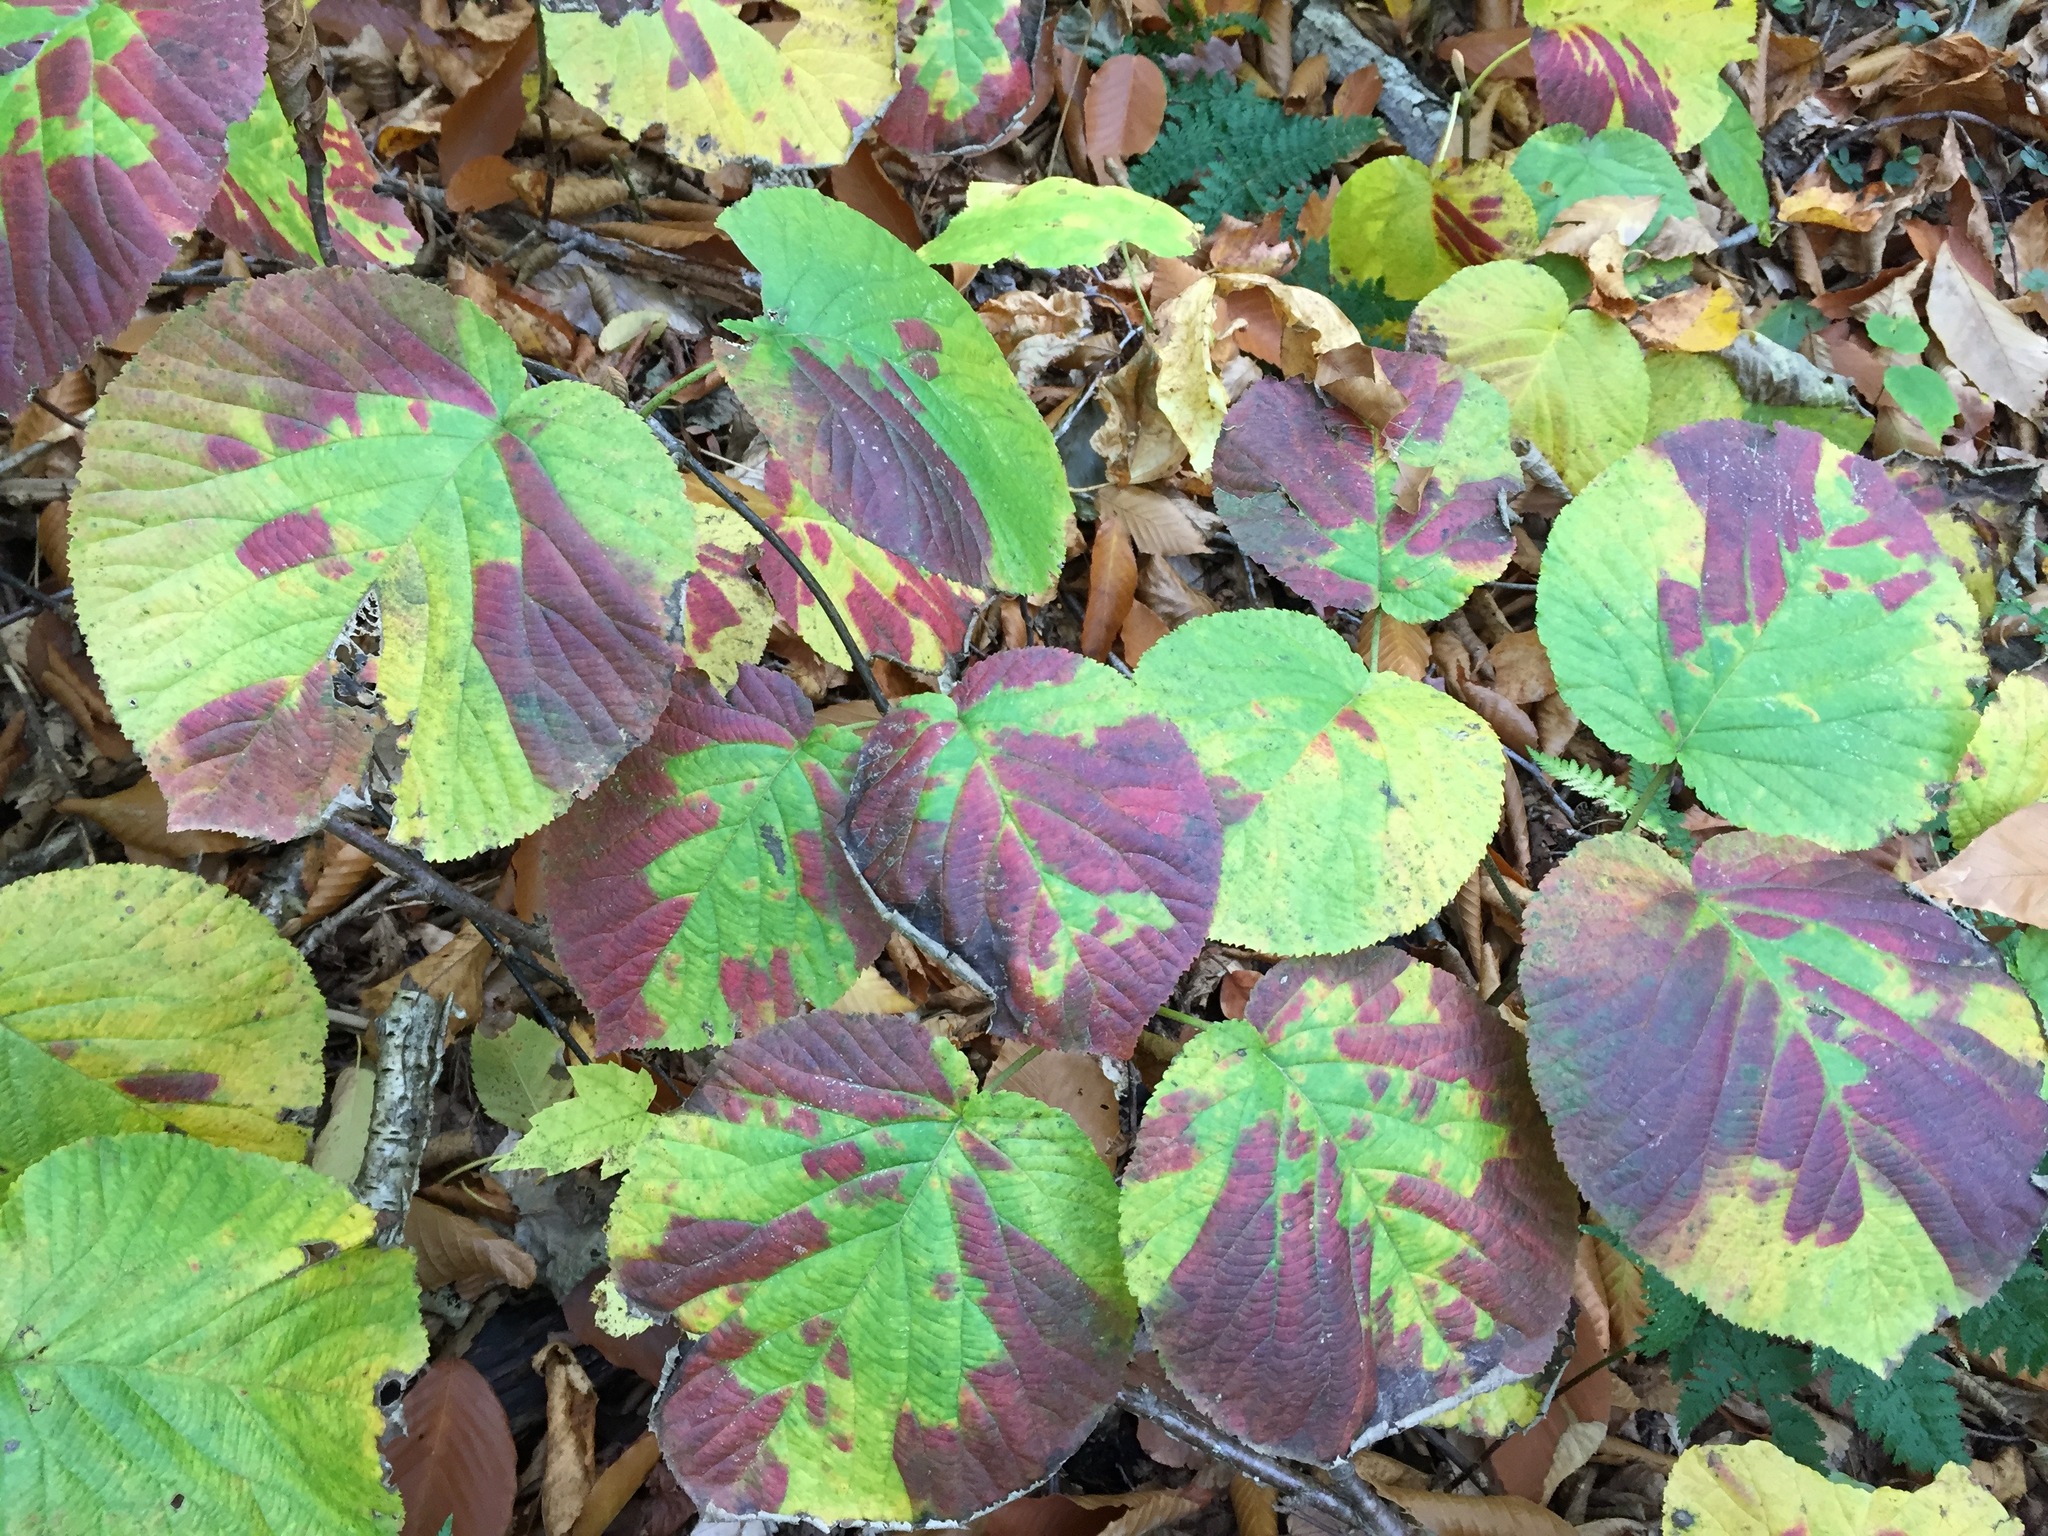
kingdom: Plantae
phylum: Tracheophyta
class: Magnoliopsida
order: Dipsacales
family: Viburnaceae
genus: Viburnum
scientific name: Viburnum lantanoides
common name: Hobblebush
